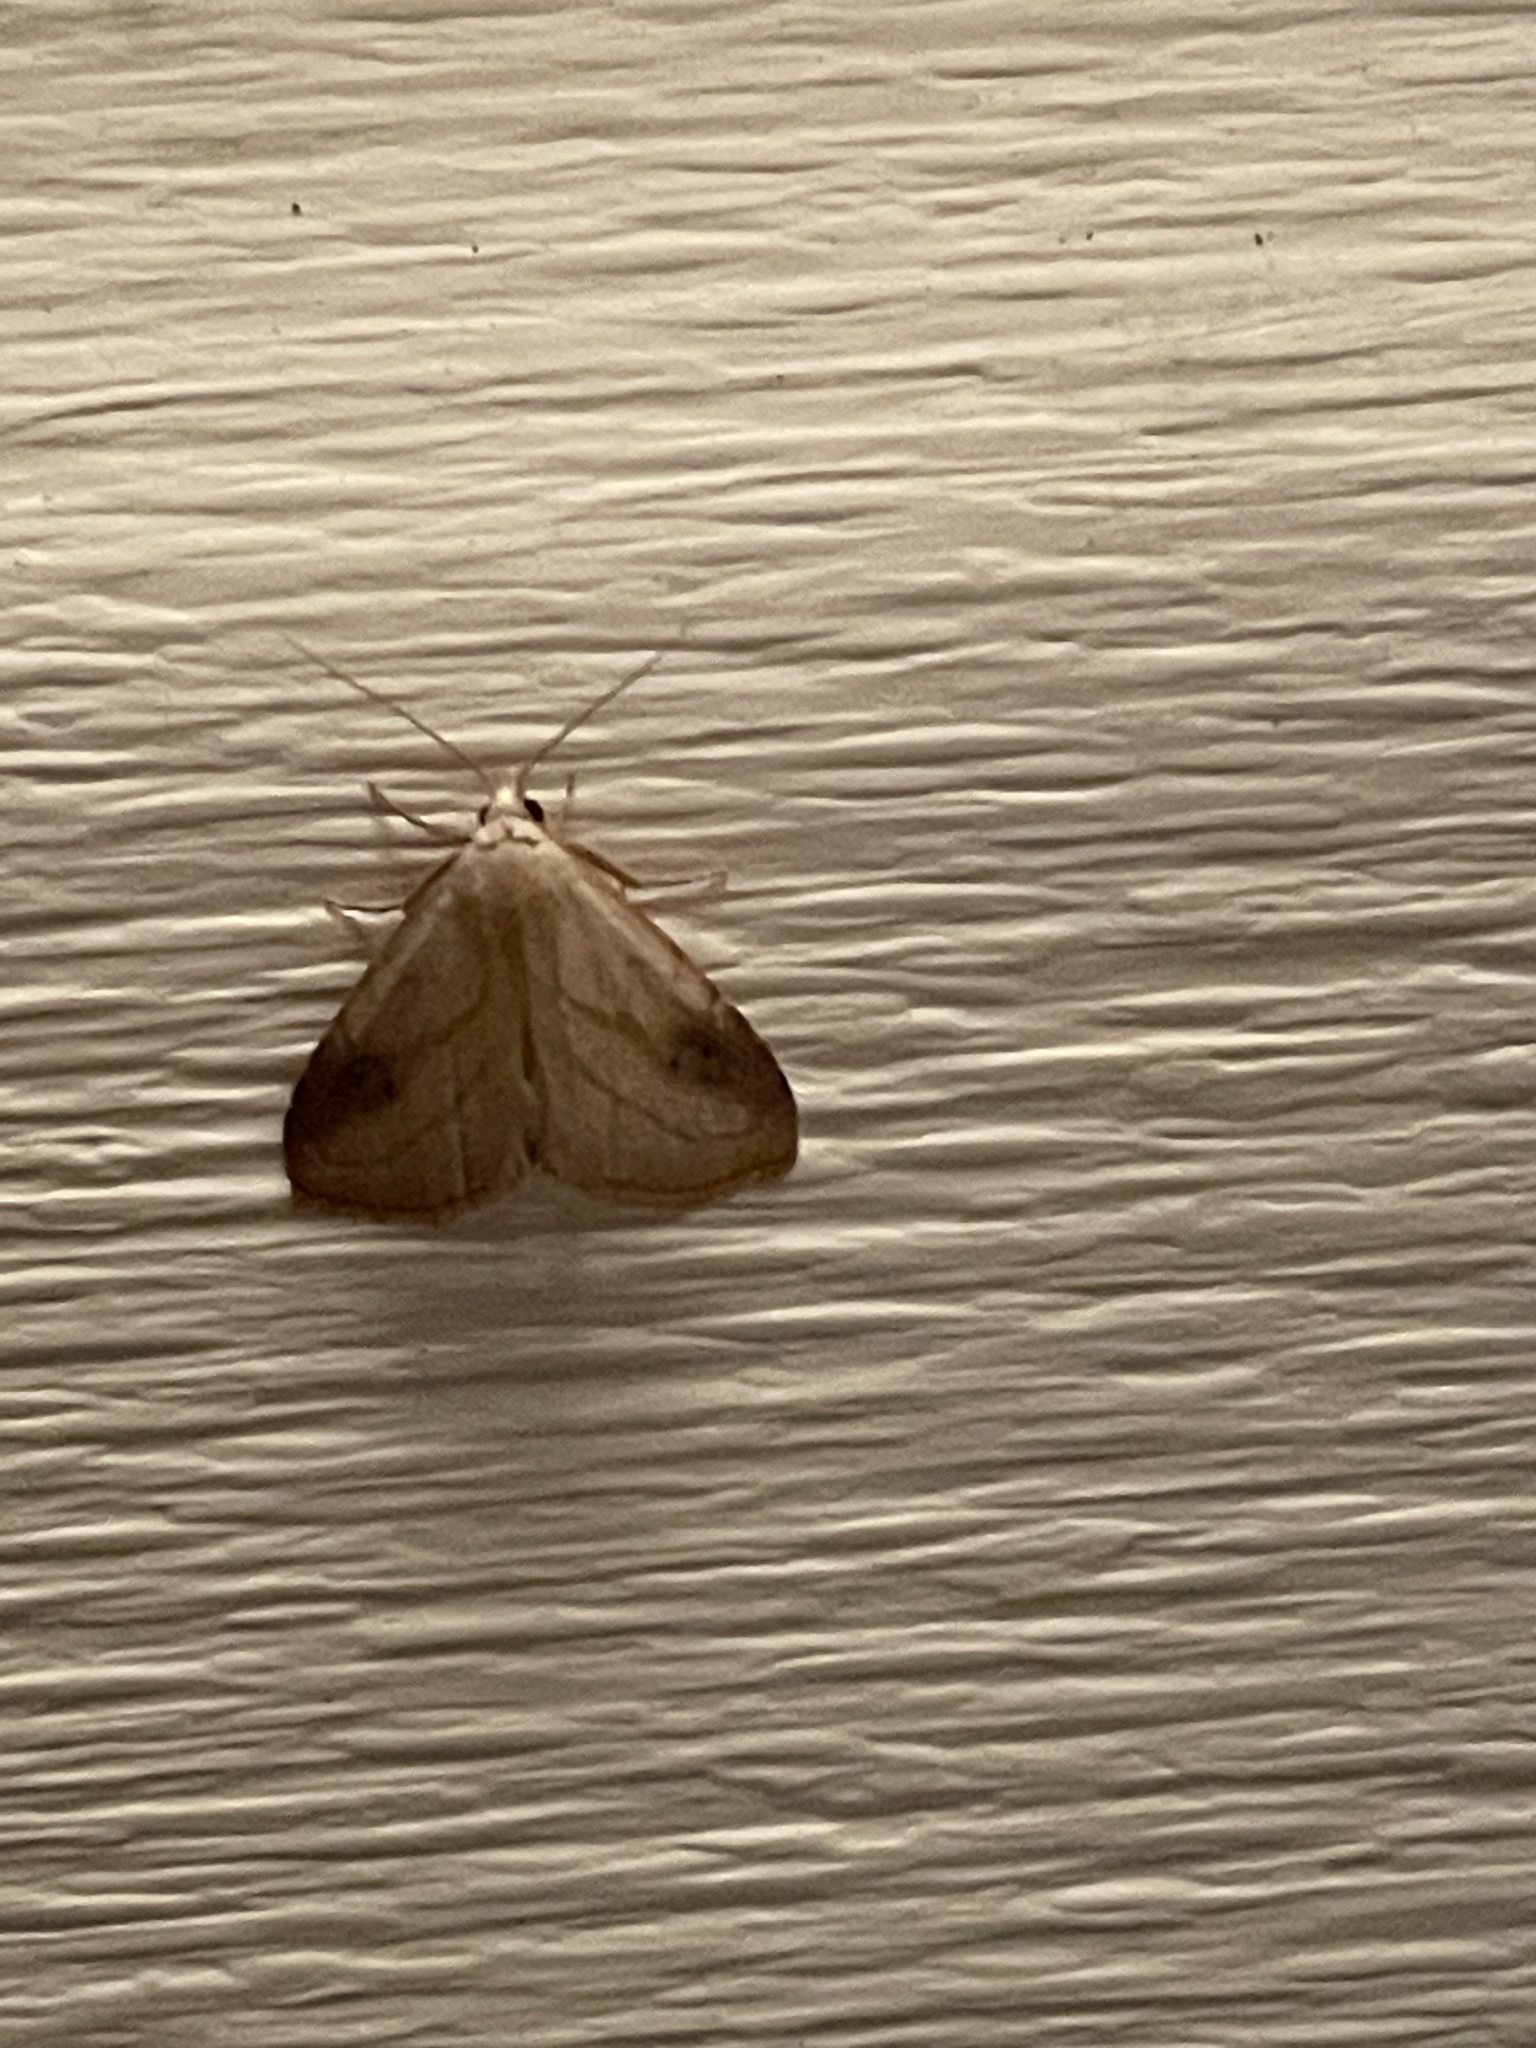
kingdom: Animalia
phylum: Arthropoda
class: Insecta
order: Lepidoptera
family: Erebidae
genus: Rivula
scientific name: Rivula propinqualis
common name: Spotted grass moth
